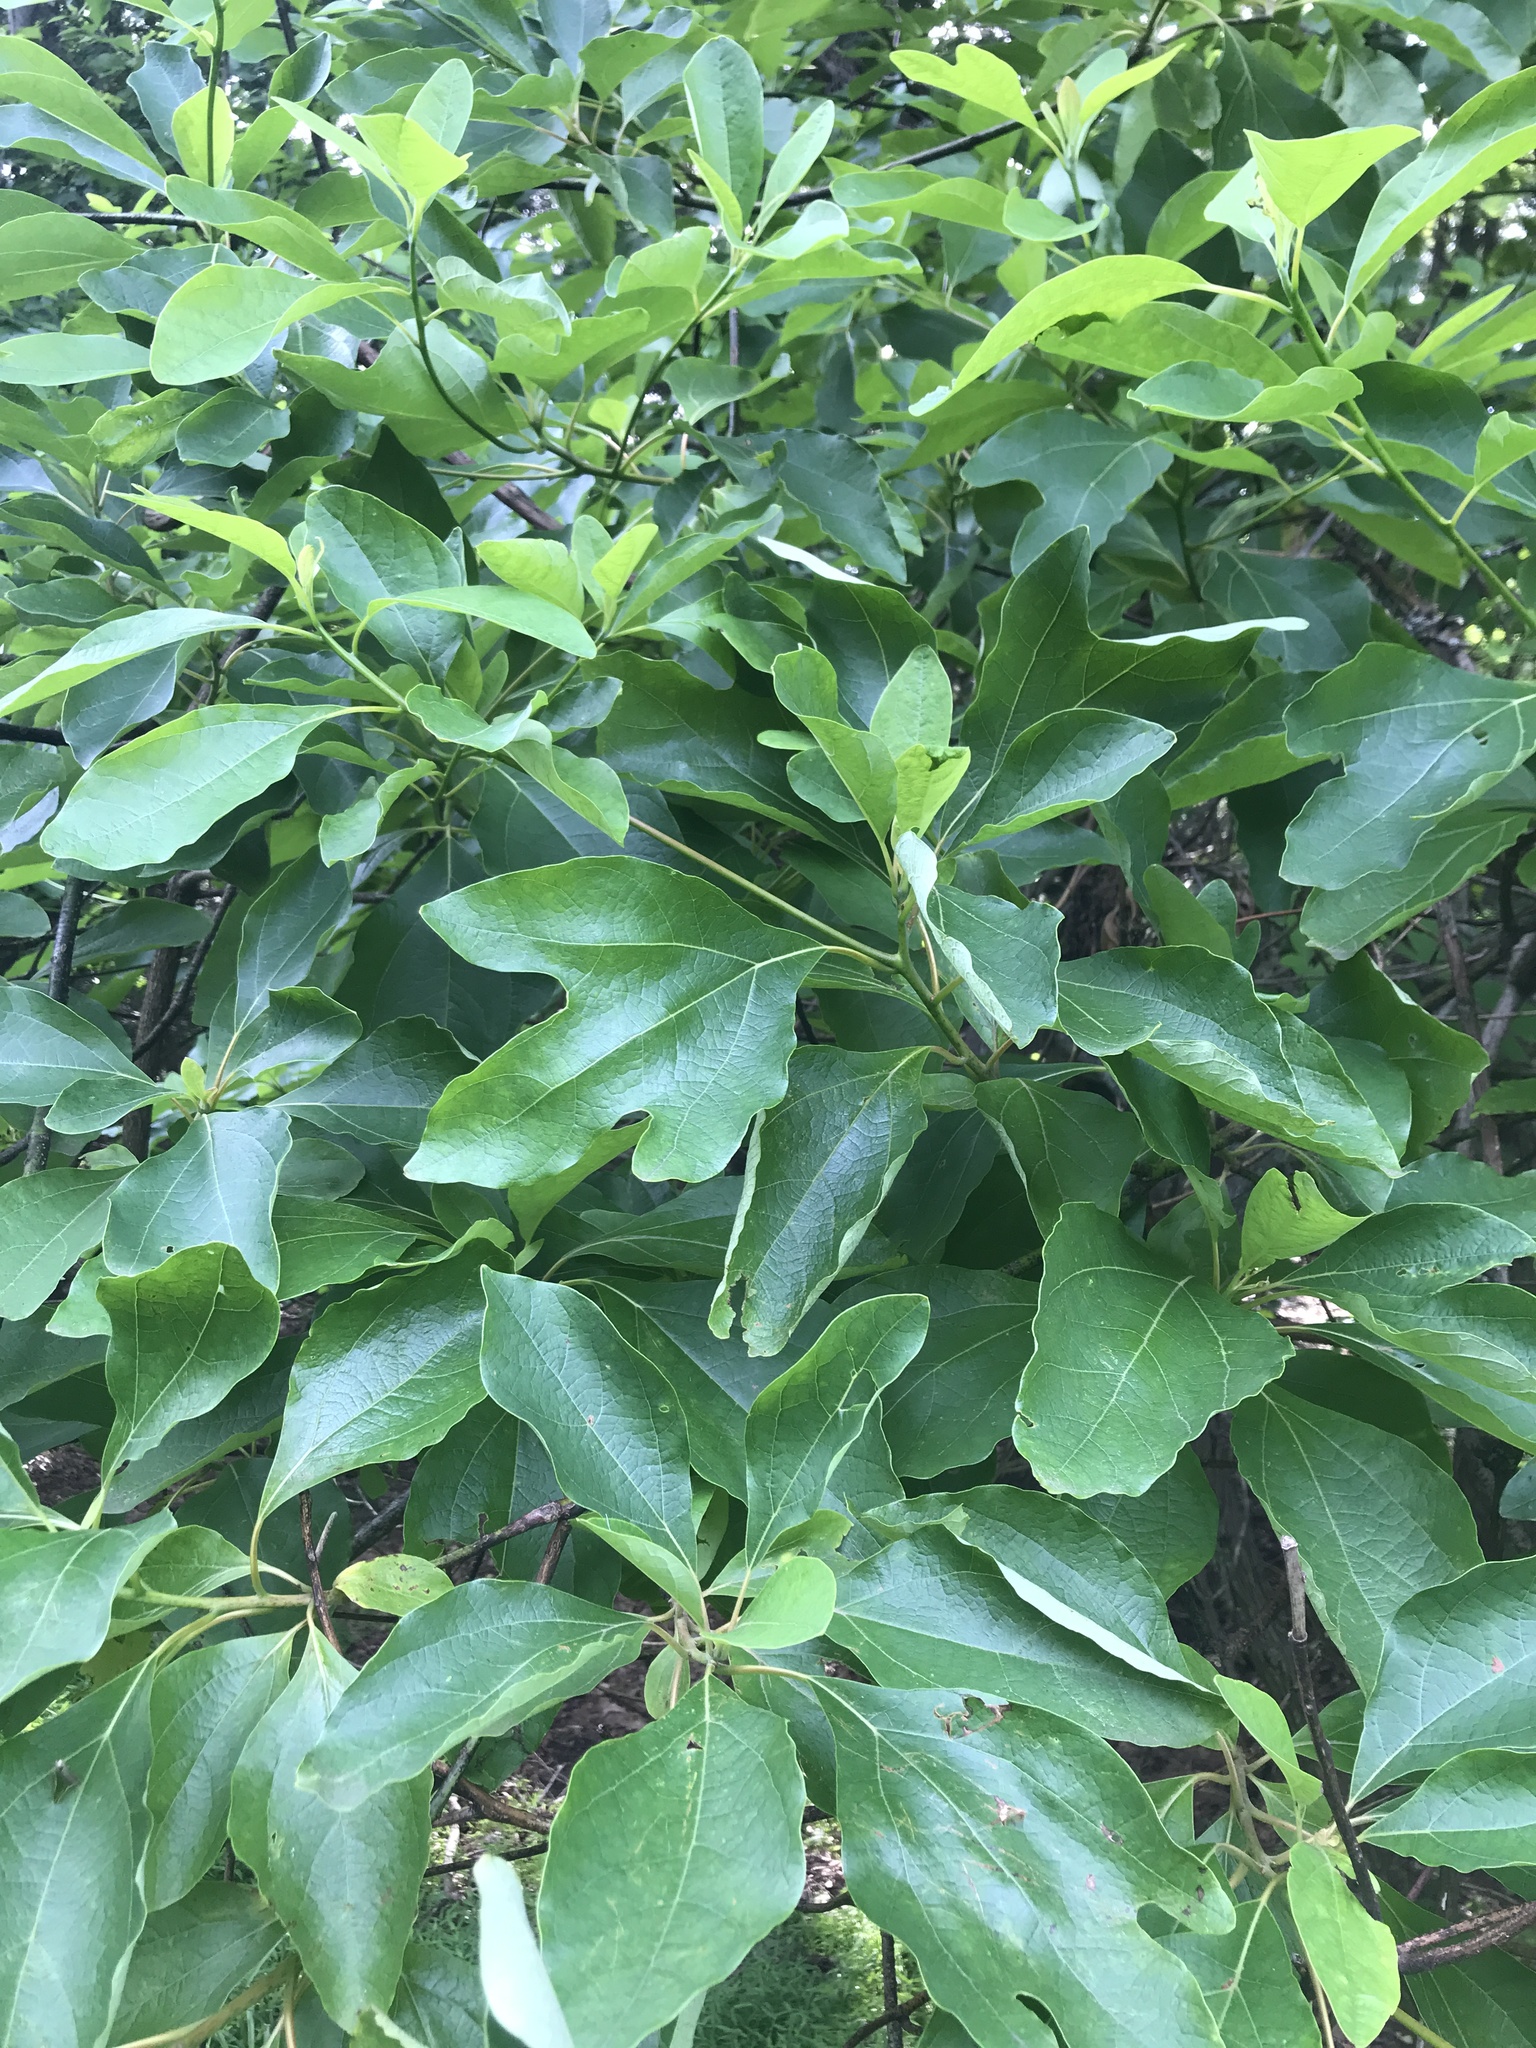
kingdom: Plantae
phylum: Tracheophyta
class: Magnoliopsida
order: Laurales
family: Lauraceae
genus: Sassafras
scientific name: Sassafras albidum
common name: Sassafras
